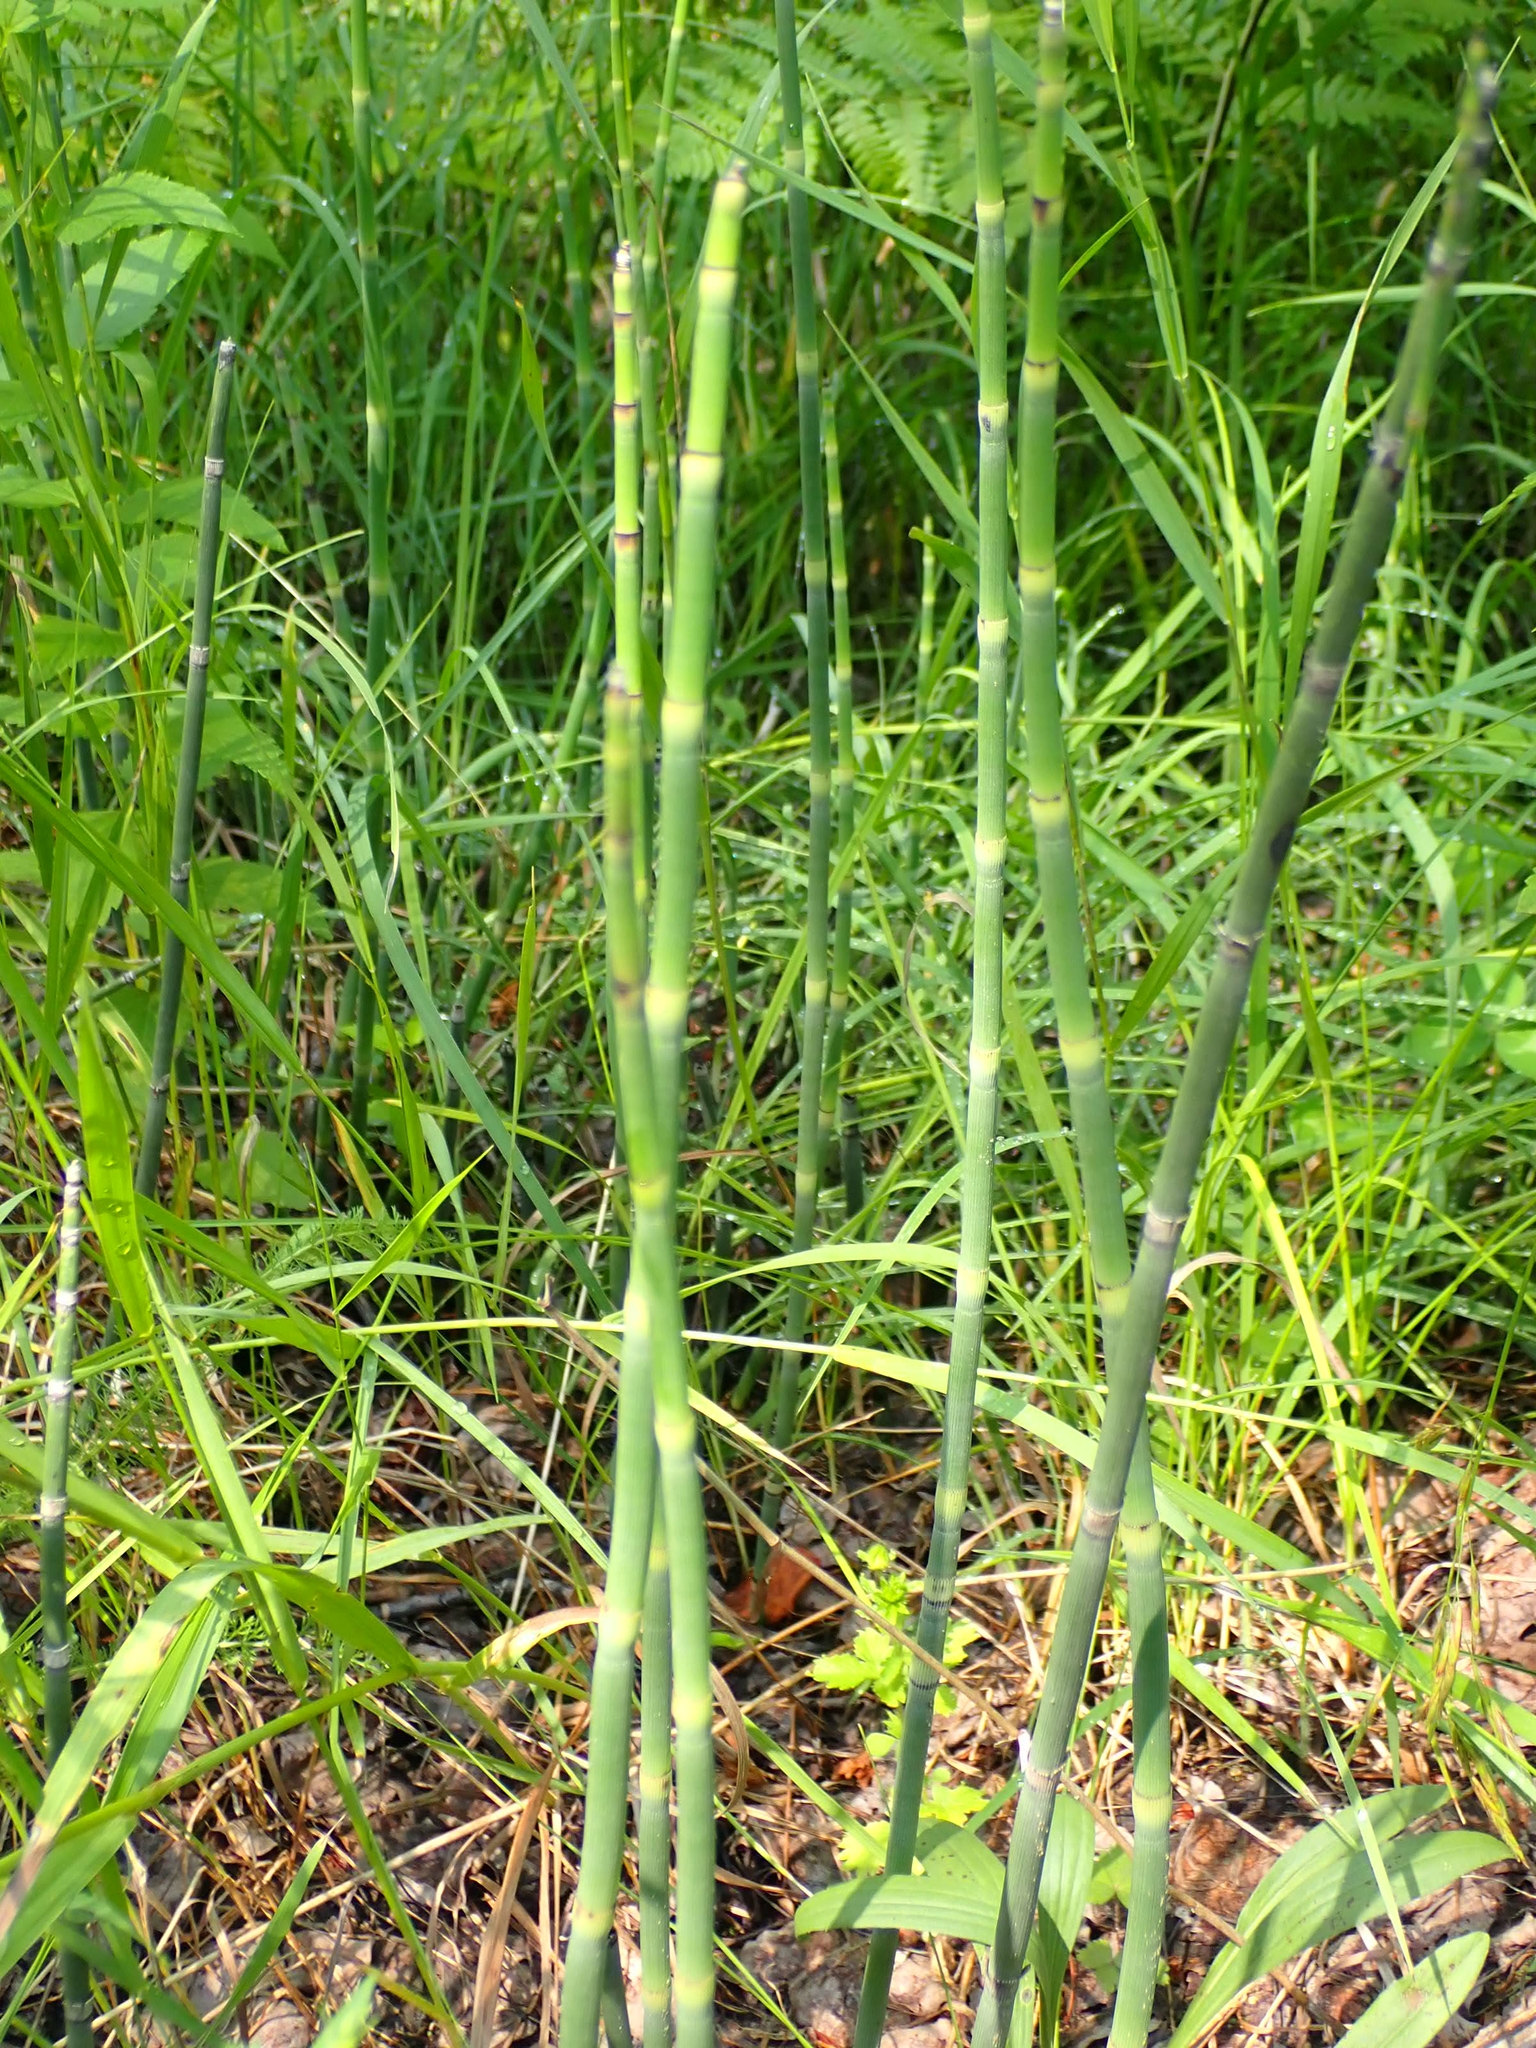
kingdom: Plantae
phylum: Tracheophyta
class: Polypodiopsida
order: Equisetales
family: Equisetaceae
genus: Equisetum
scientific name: Equisetum praealtum
